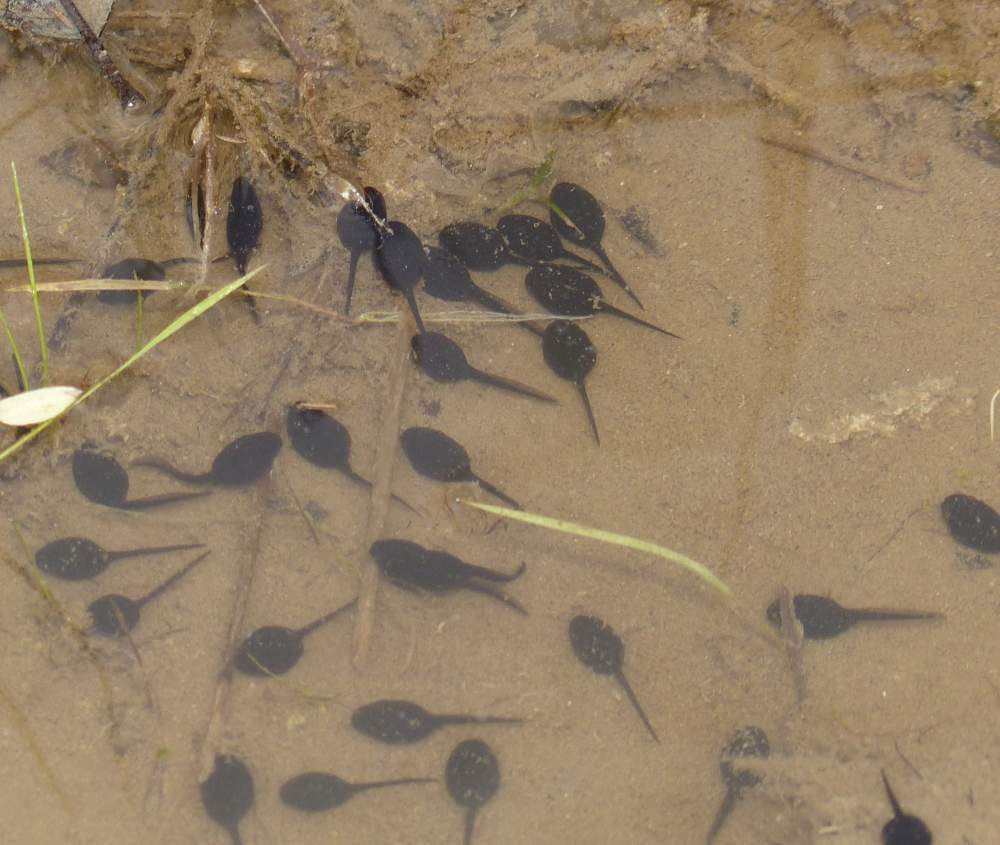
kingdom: Animalia
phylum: Chordata
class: Amphibia
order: Anura
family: Bufonidae
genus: Anaxyrus
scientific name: Anaxyrus americanus
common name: American toad
